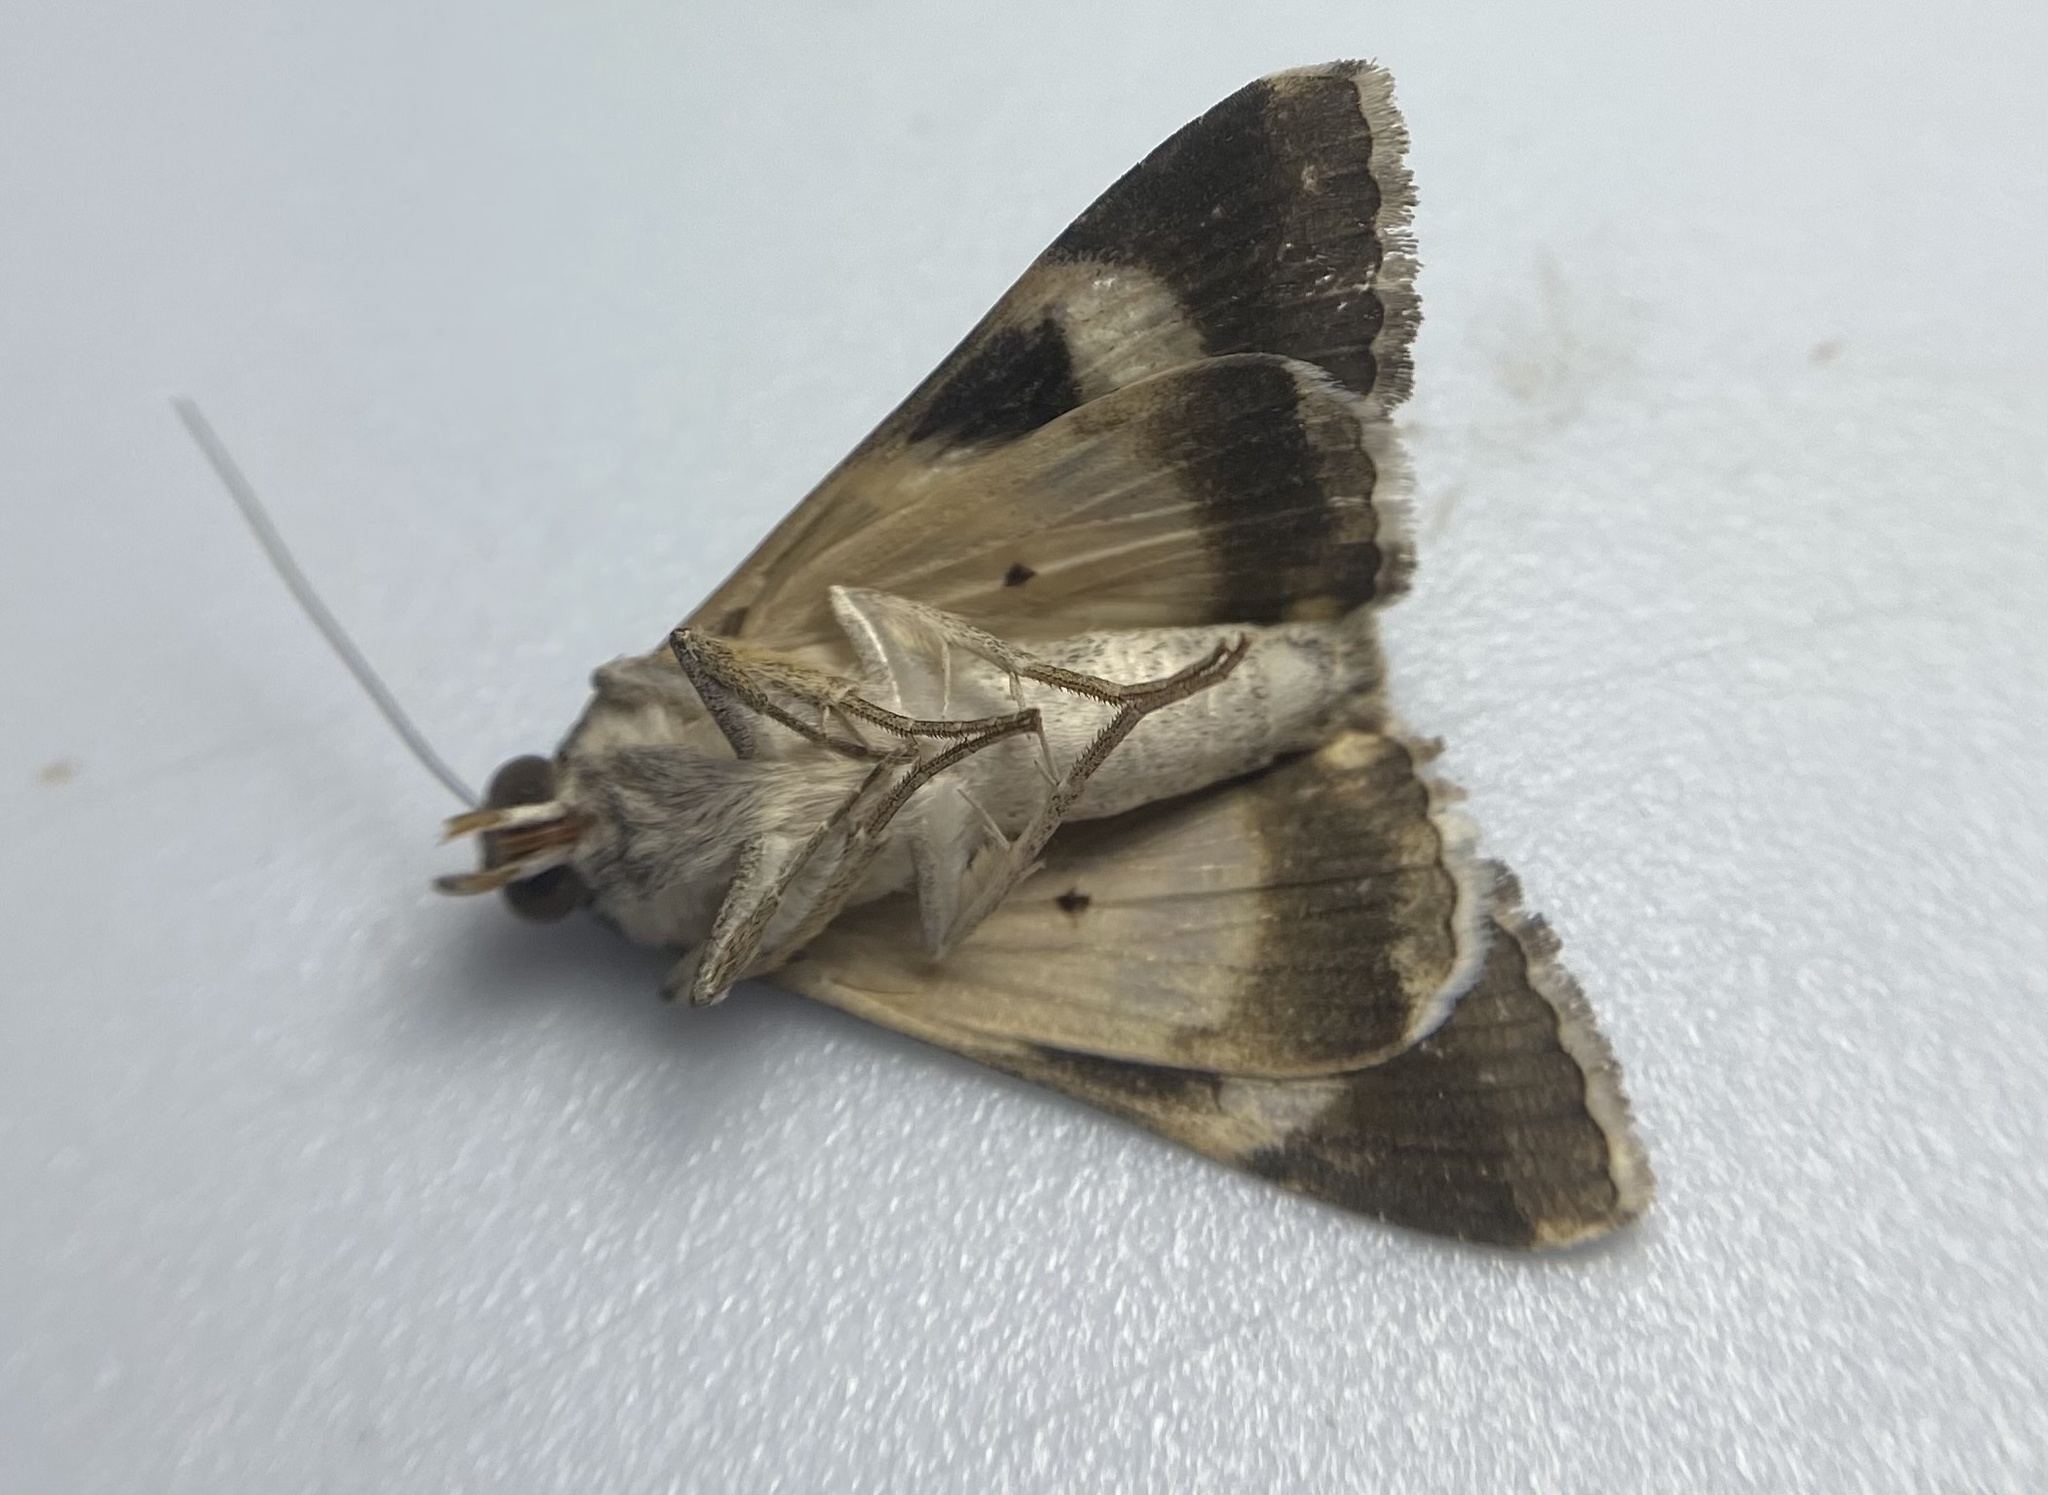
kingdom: Animalia
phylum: Arthropoda
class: Insecta
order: Lepidoptera
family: Erebidae
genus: Melipotis
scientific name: Melipotis indomita
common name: Moth
